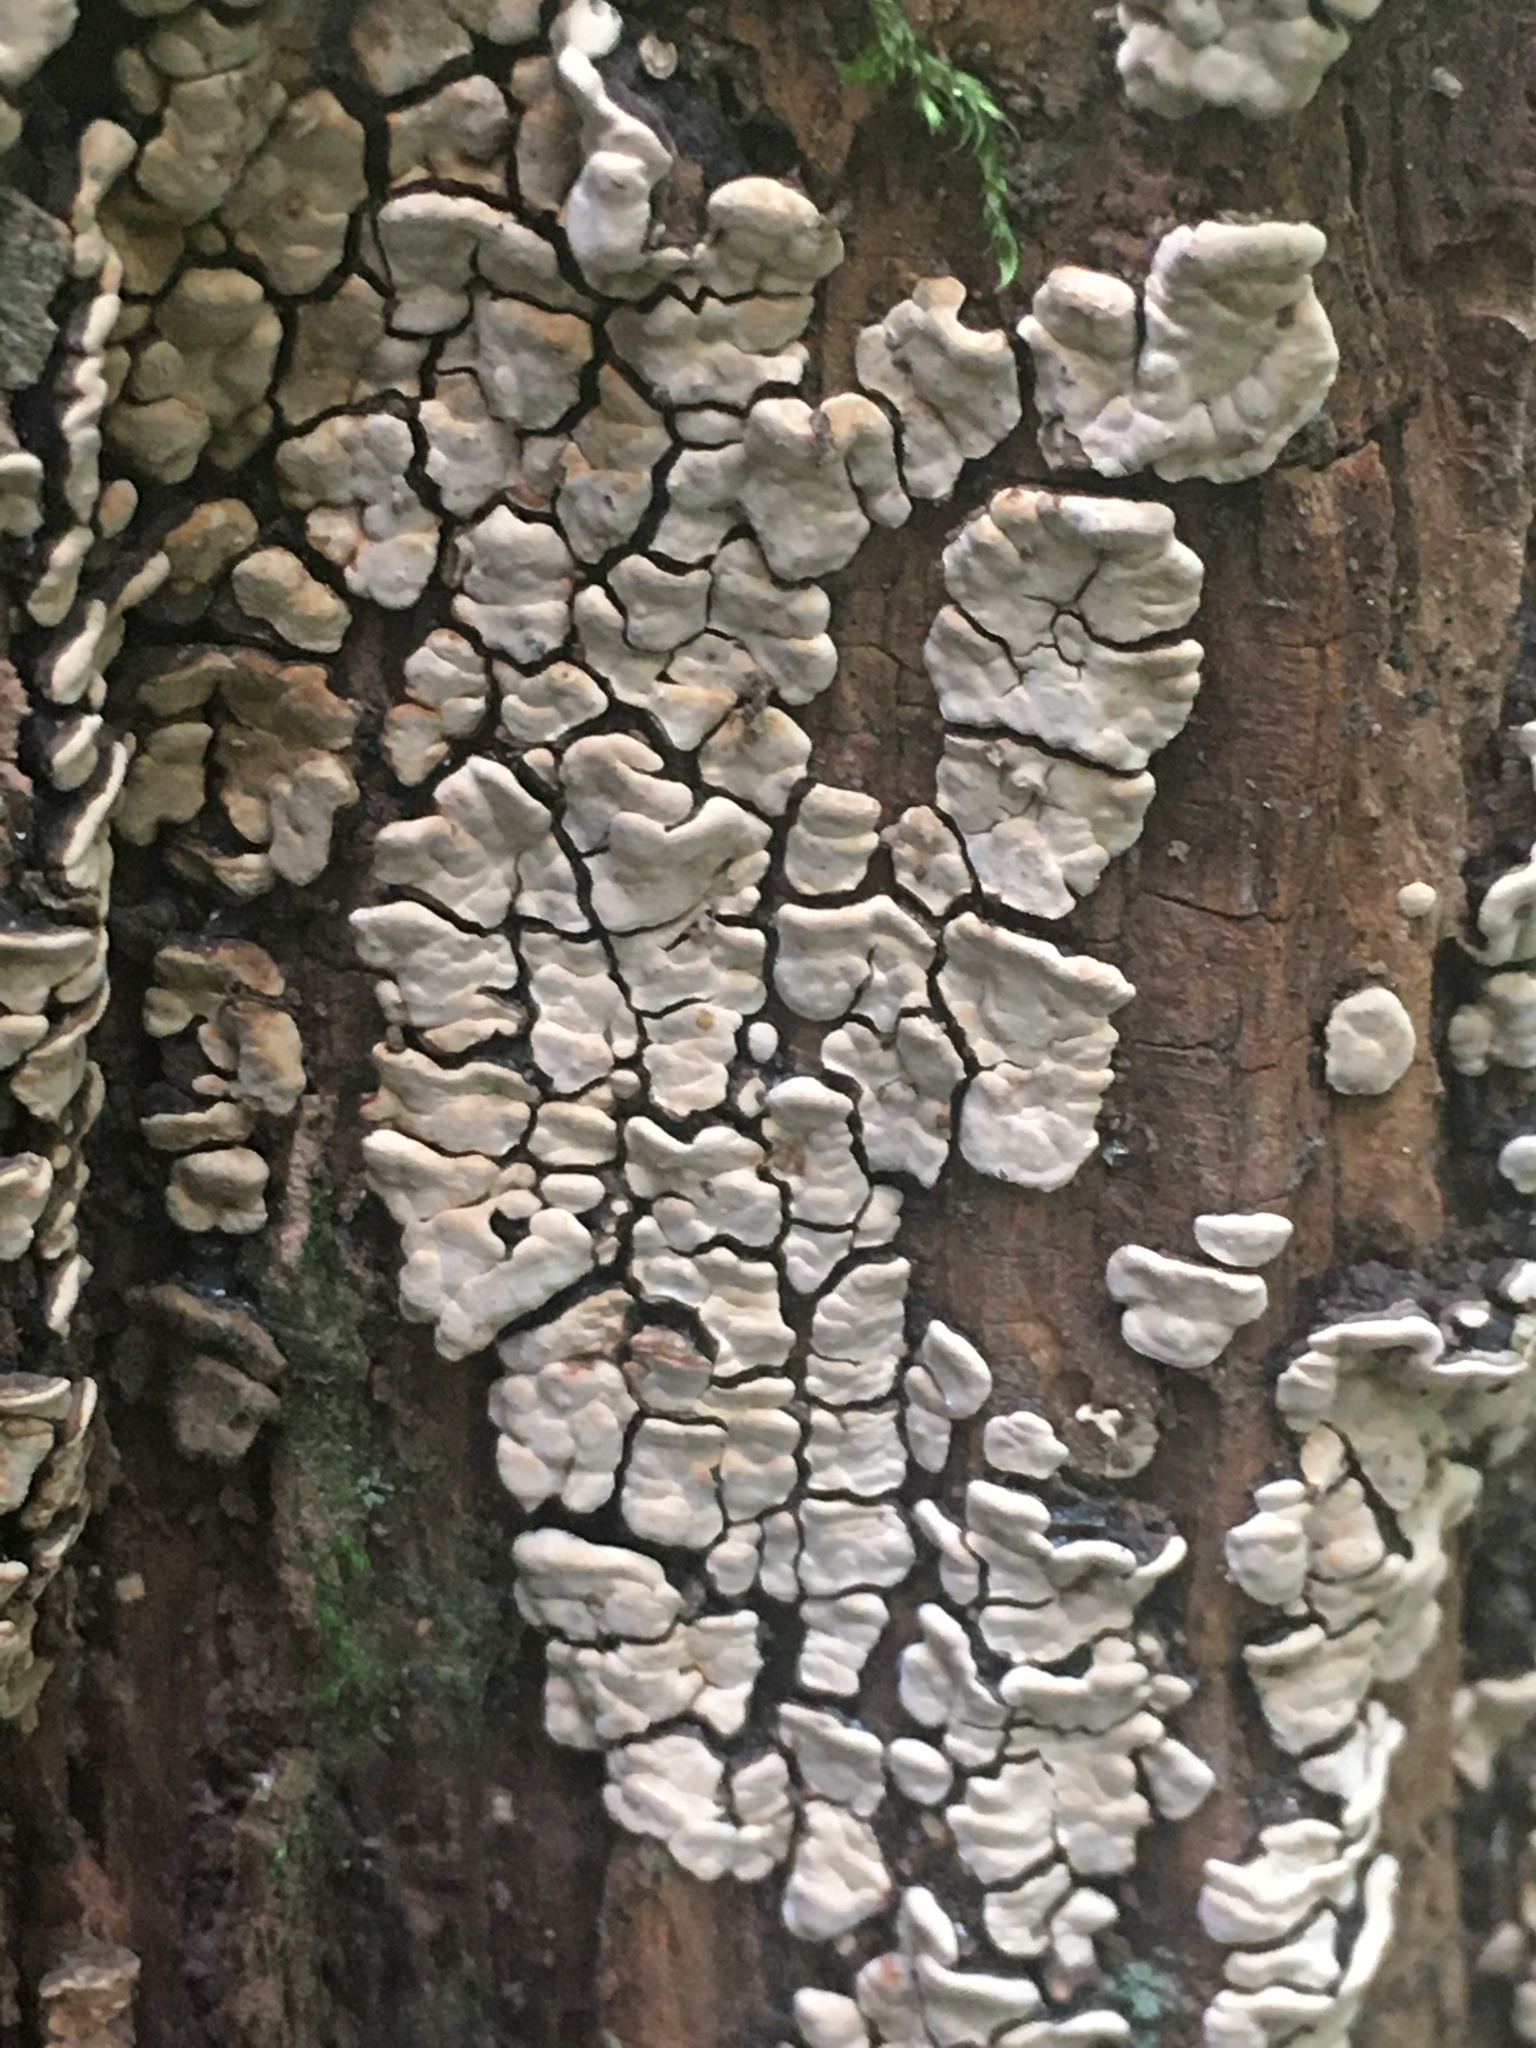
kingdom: Fungi
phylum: Basidiomycota
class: Agaricomycetes
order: Russulales
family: Stereaceae
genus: Xylobolus
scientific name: Xylobolus frustulatus
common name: Ceramic parchment
